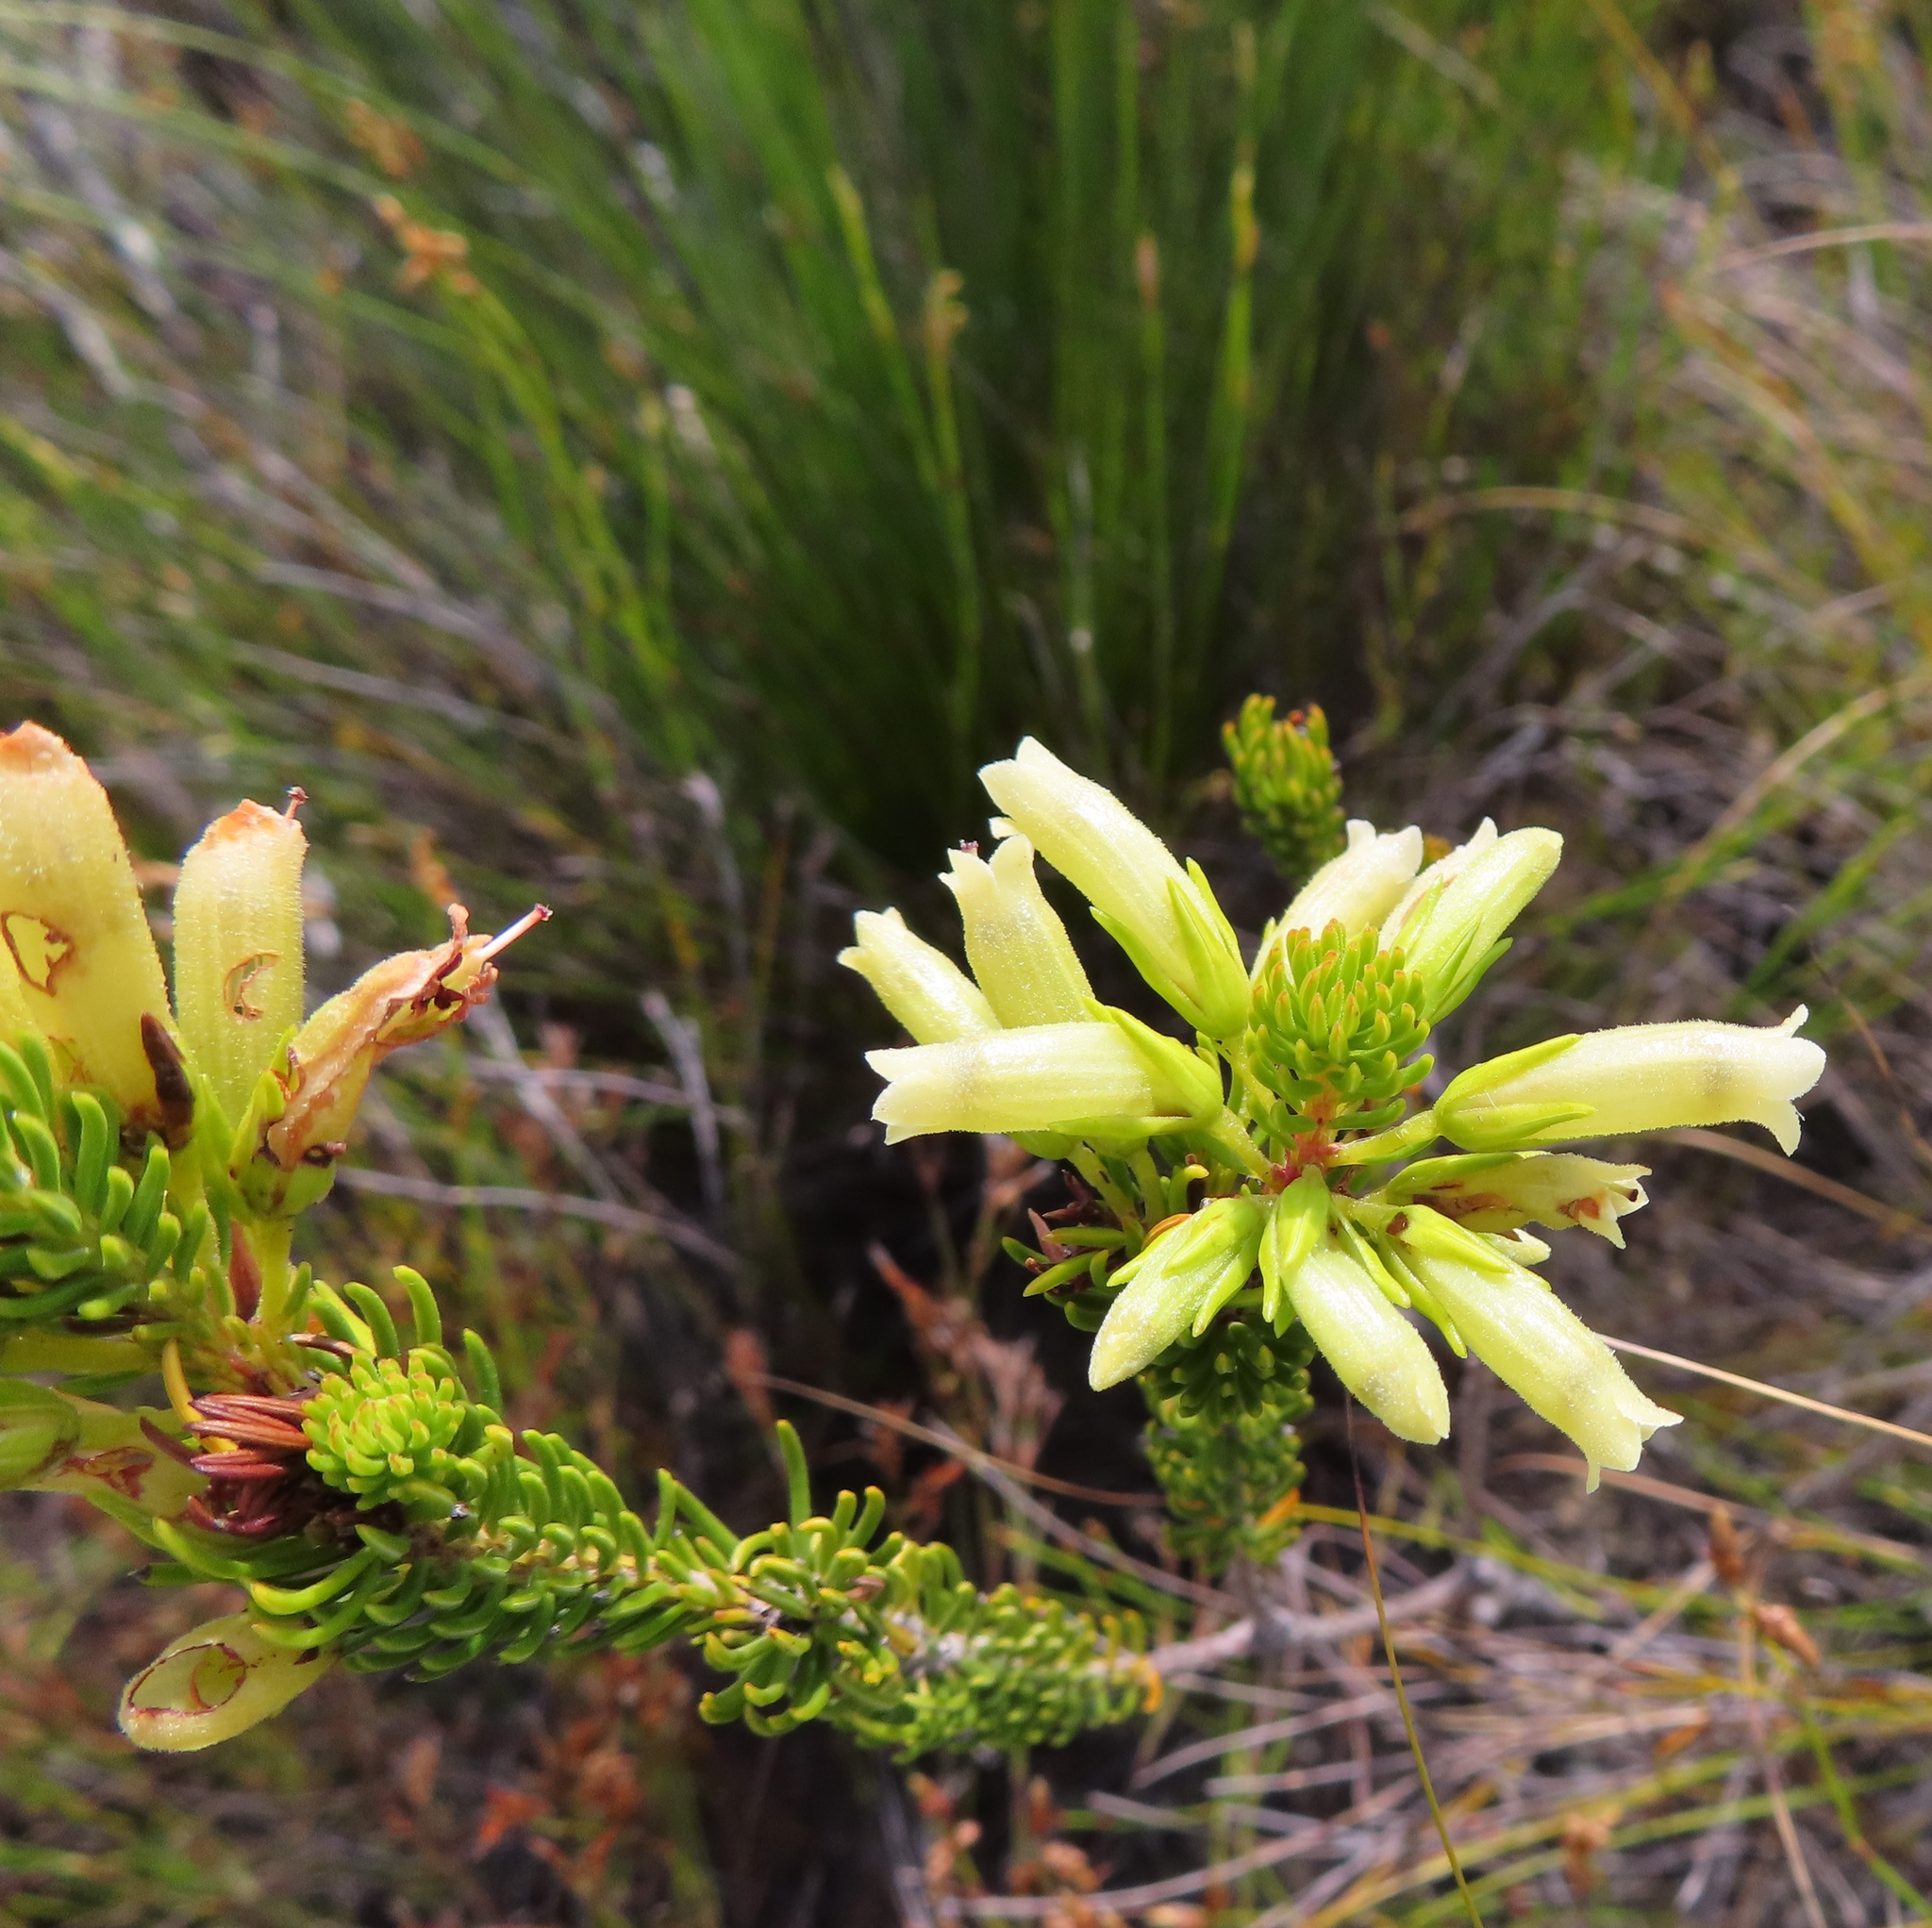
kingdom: Plantae
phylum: Tracheophyta
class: Magnoliopsida
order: Ericales
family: Ericaceae
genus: Erica
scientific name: Erica viscaria
